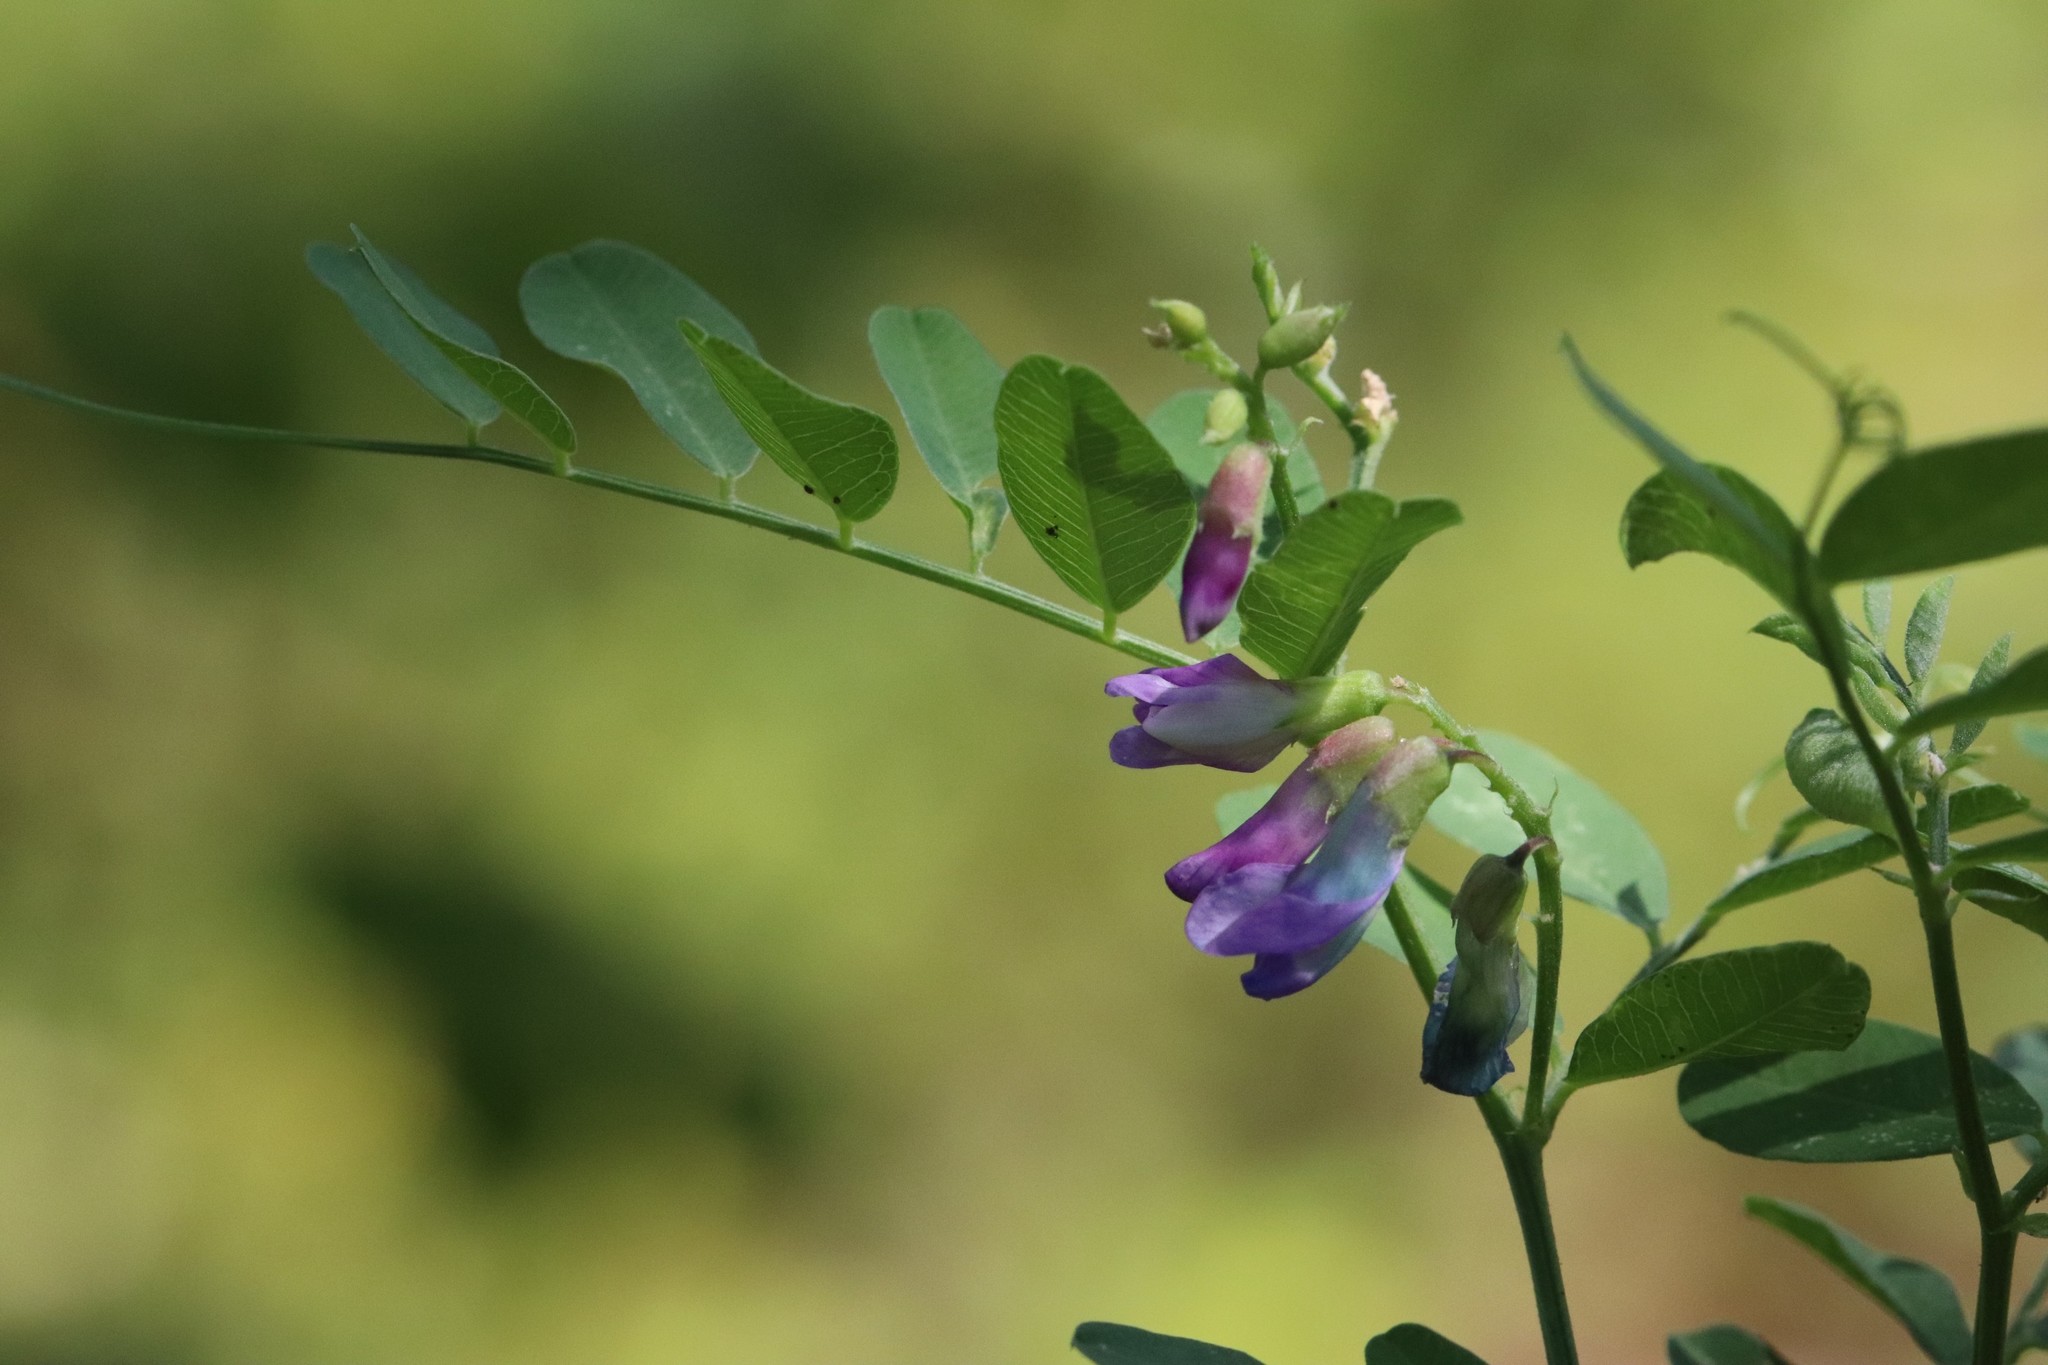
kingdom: Plantae
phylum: Tracheophyta
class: Magnoliopsida
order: Fabales
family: Fabaceae
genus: Vicia
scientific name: Vicia amurensis
